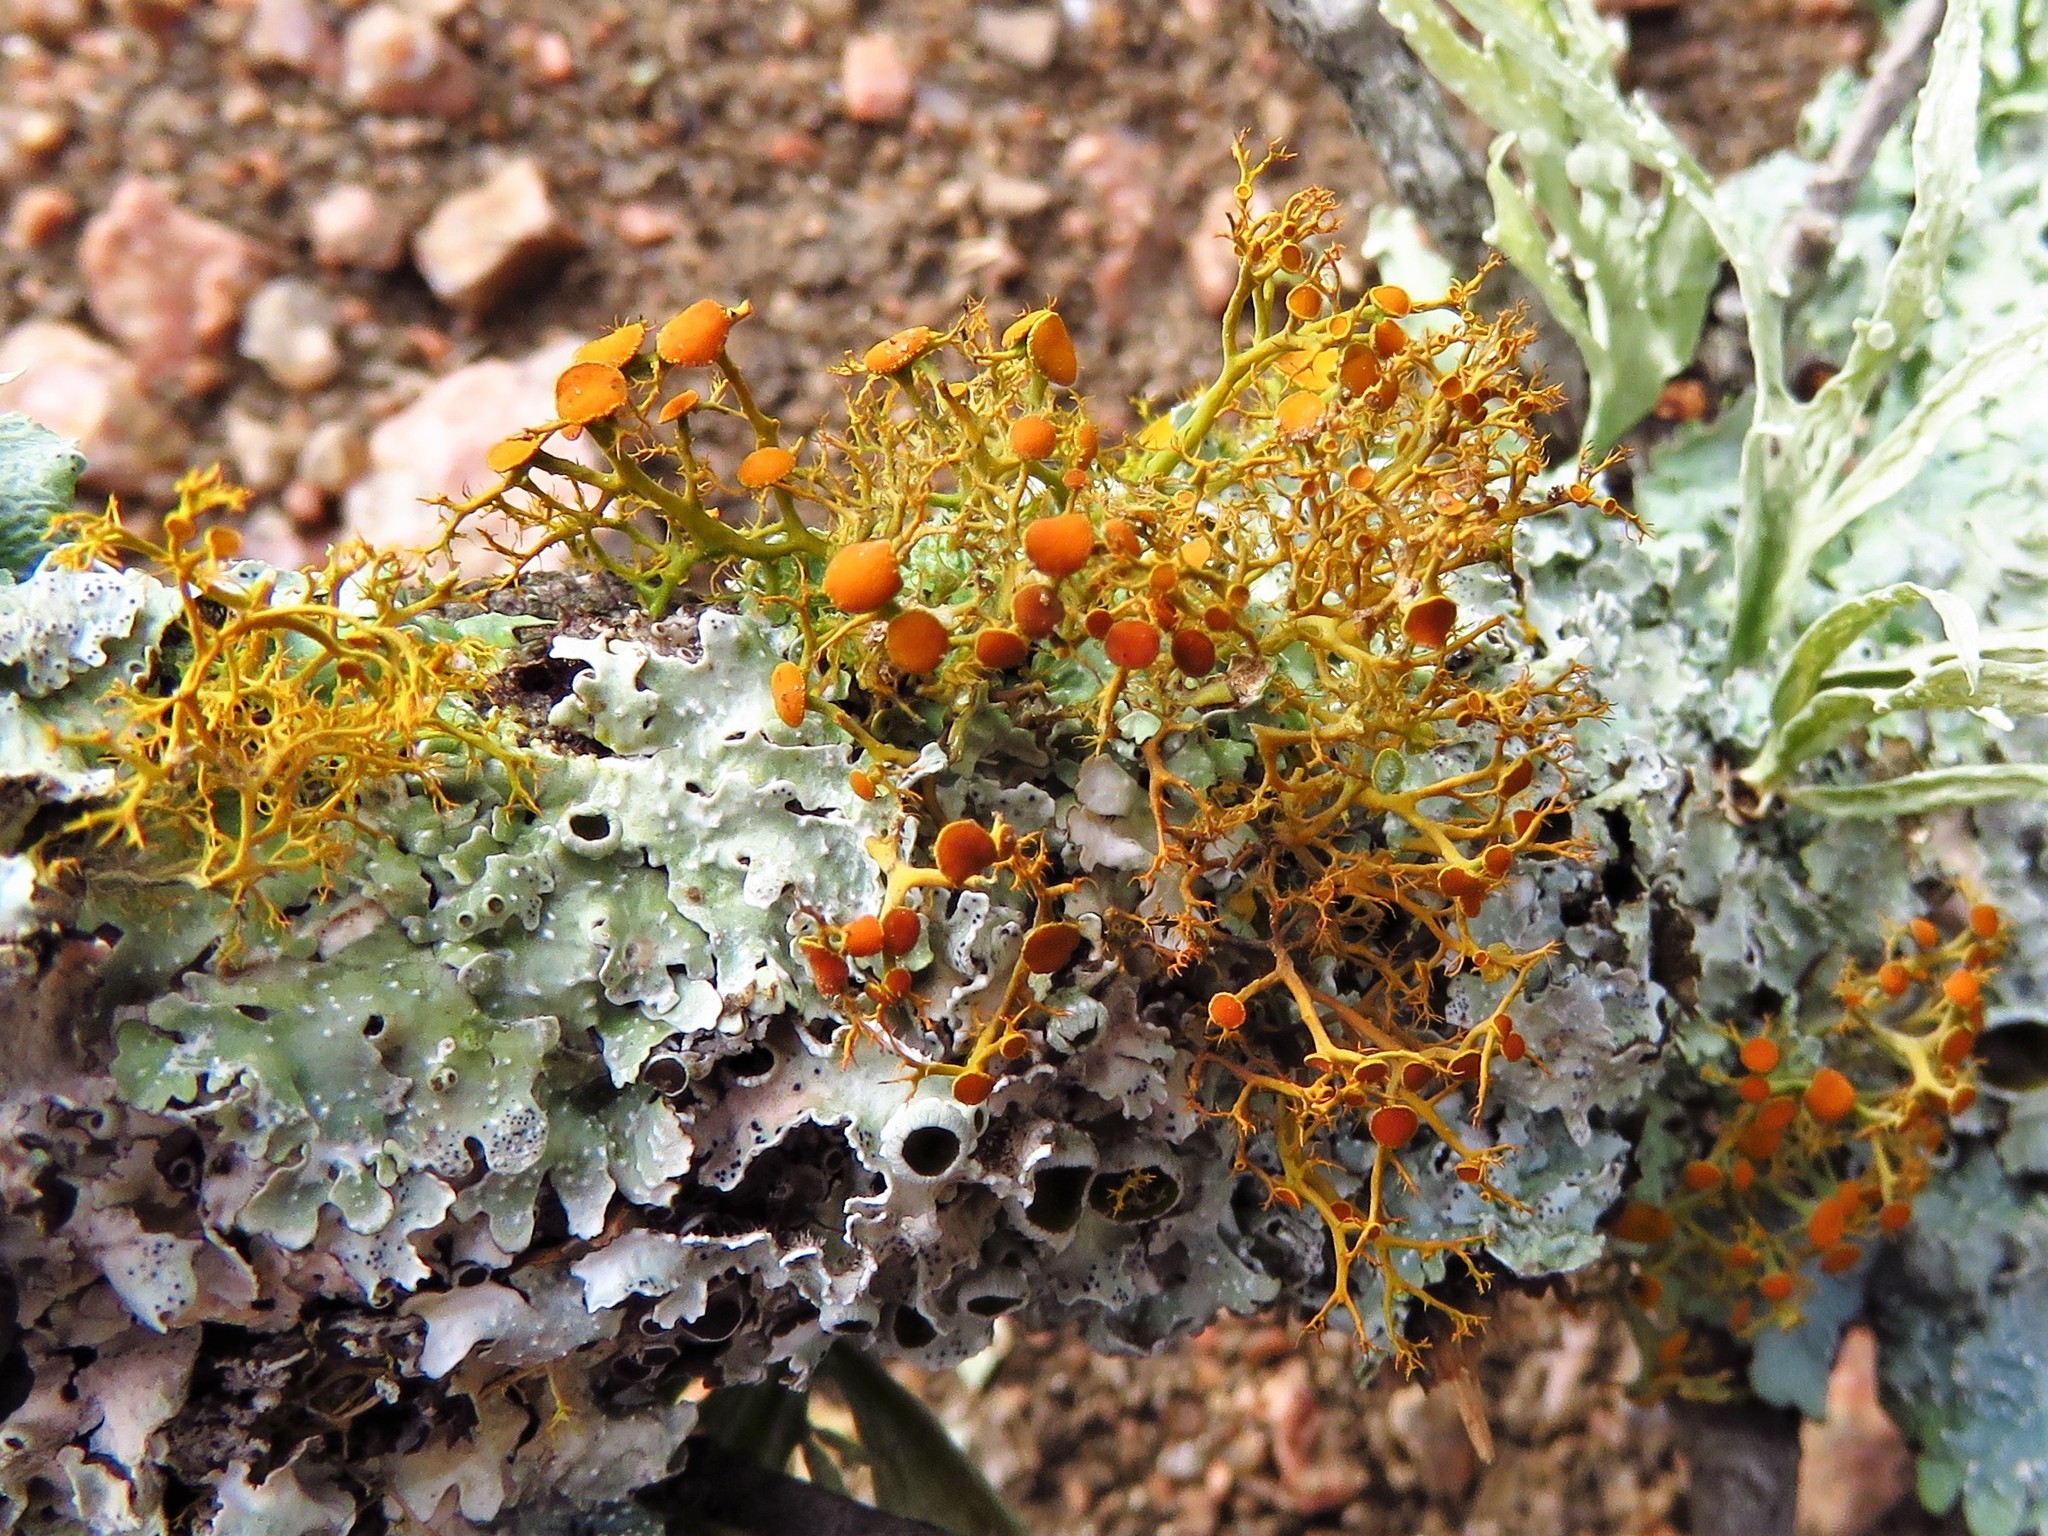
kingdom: Fungi
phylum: Ascomycota
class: Lecanoromycetes
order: Teloschistales
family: Teloschistaceae
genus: Teloschistes
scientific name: Teloschistes exilis
